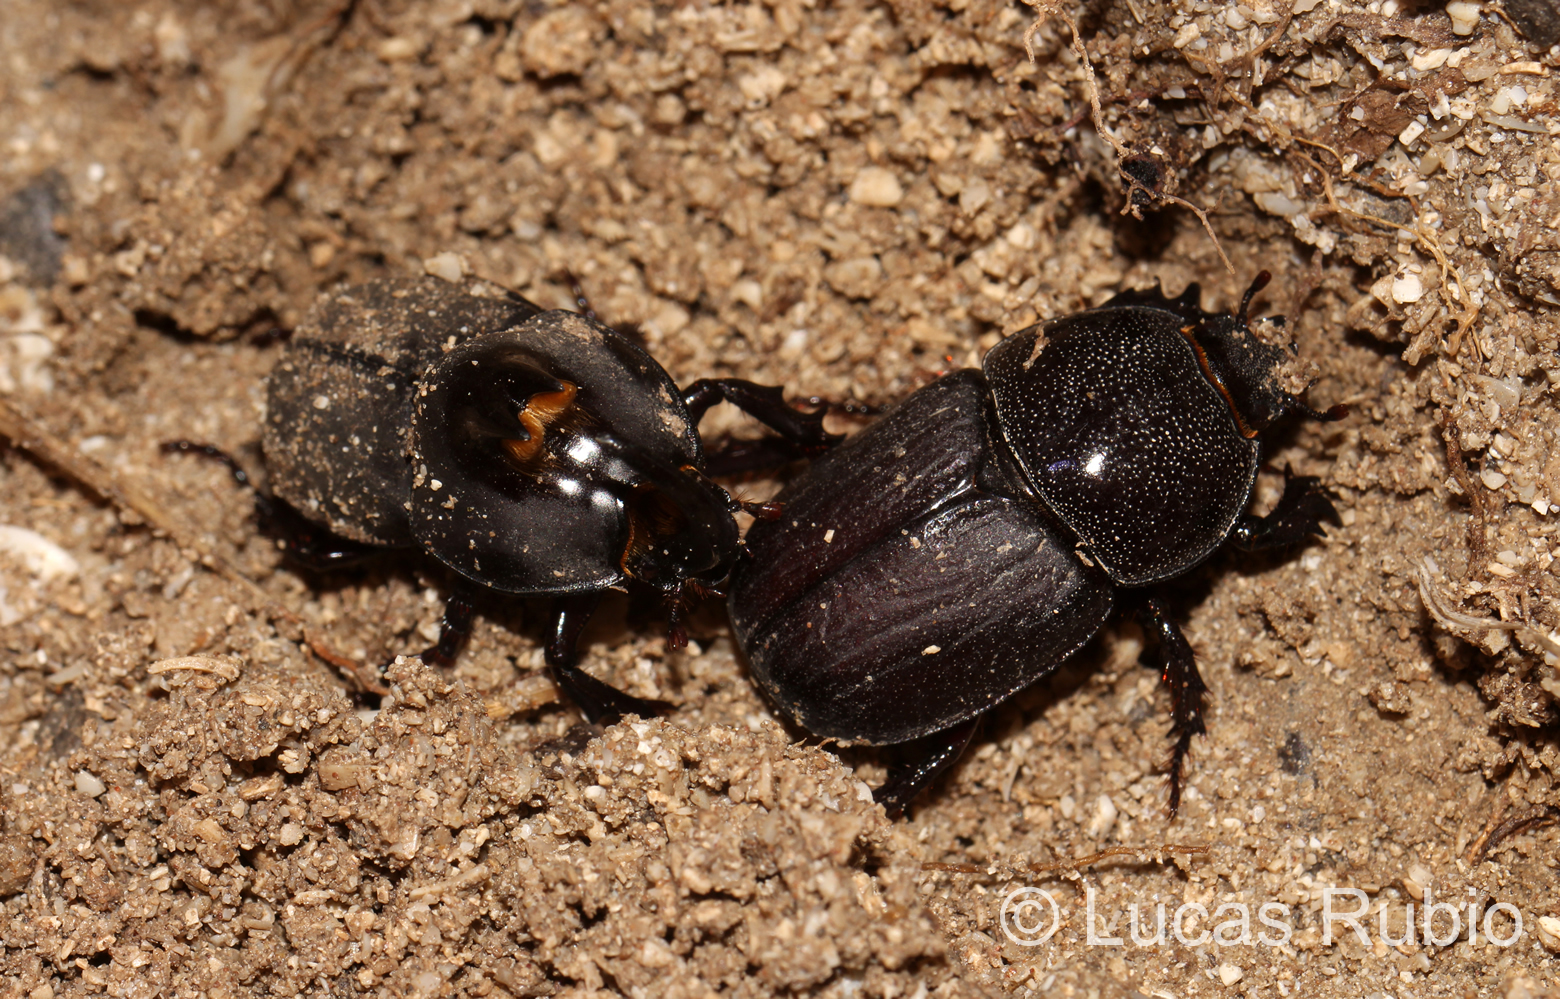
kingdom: Animalia
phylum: Arthropoda
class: Insecta
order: Coleoptera
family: Scarabaeidae
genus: Diloboderus
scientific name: Diloboderus abderus
